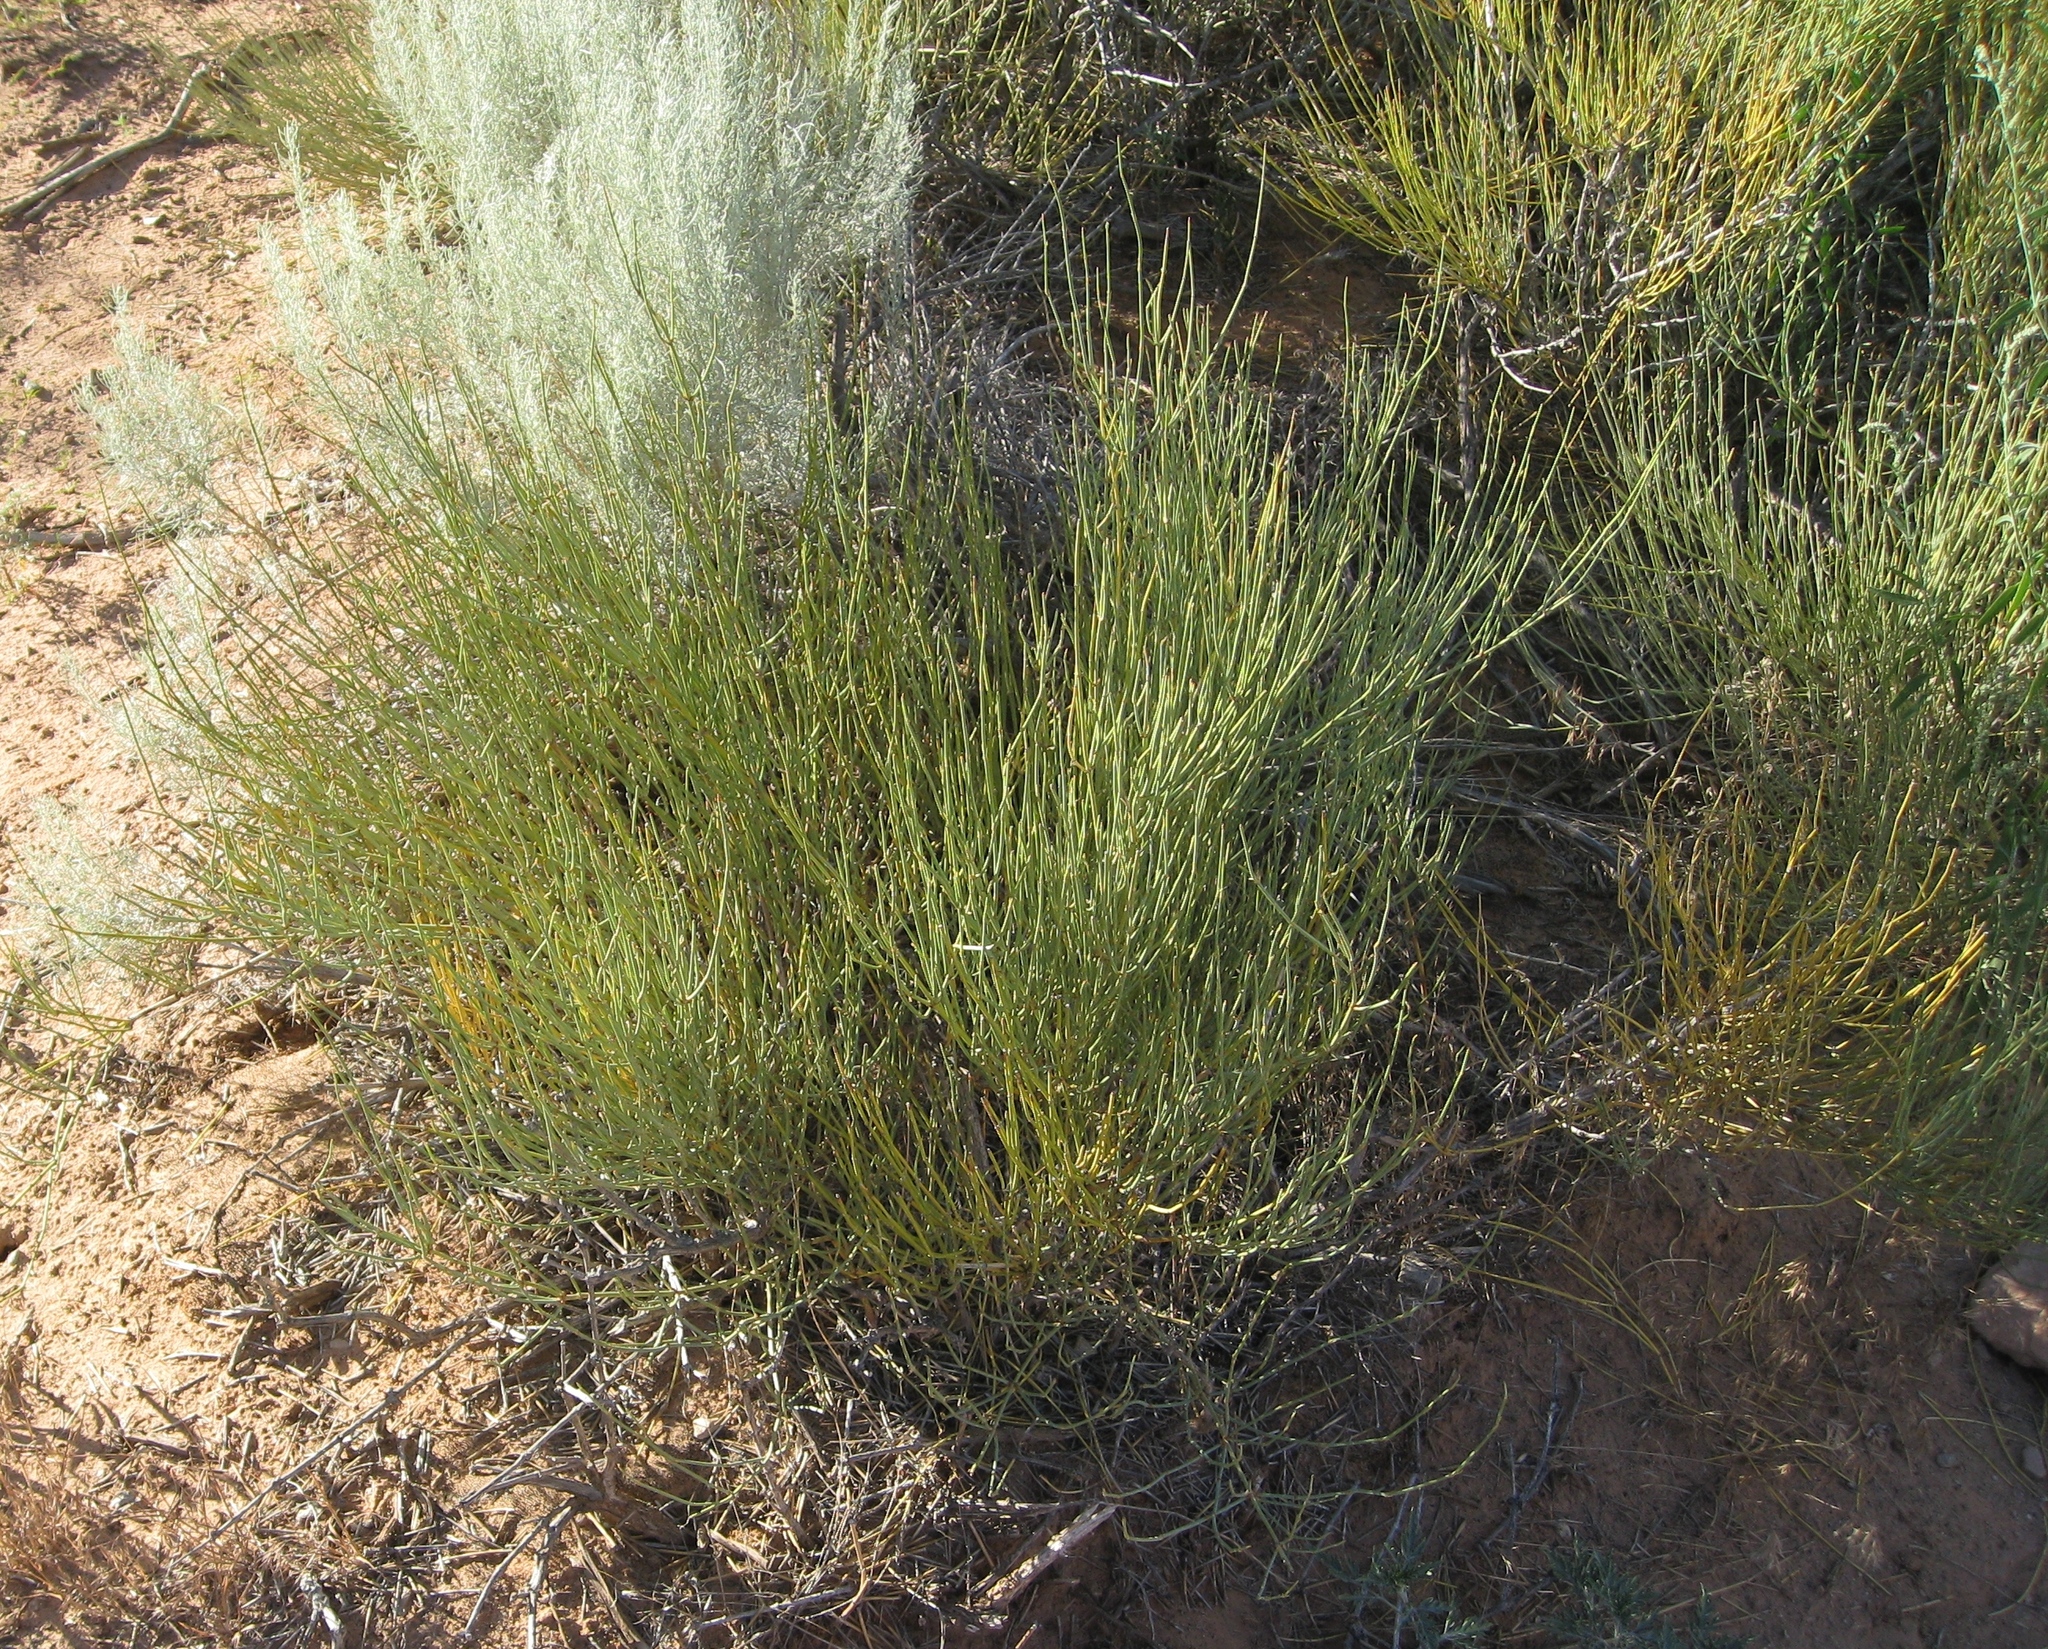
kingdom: Plantae
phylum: Tracheophyta
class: Gnetopsida
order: Ephedrales
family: Ephedraceae
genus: Ephedra
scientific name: Ephedra viridis
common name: Green ephedra
